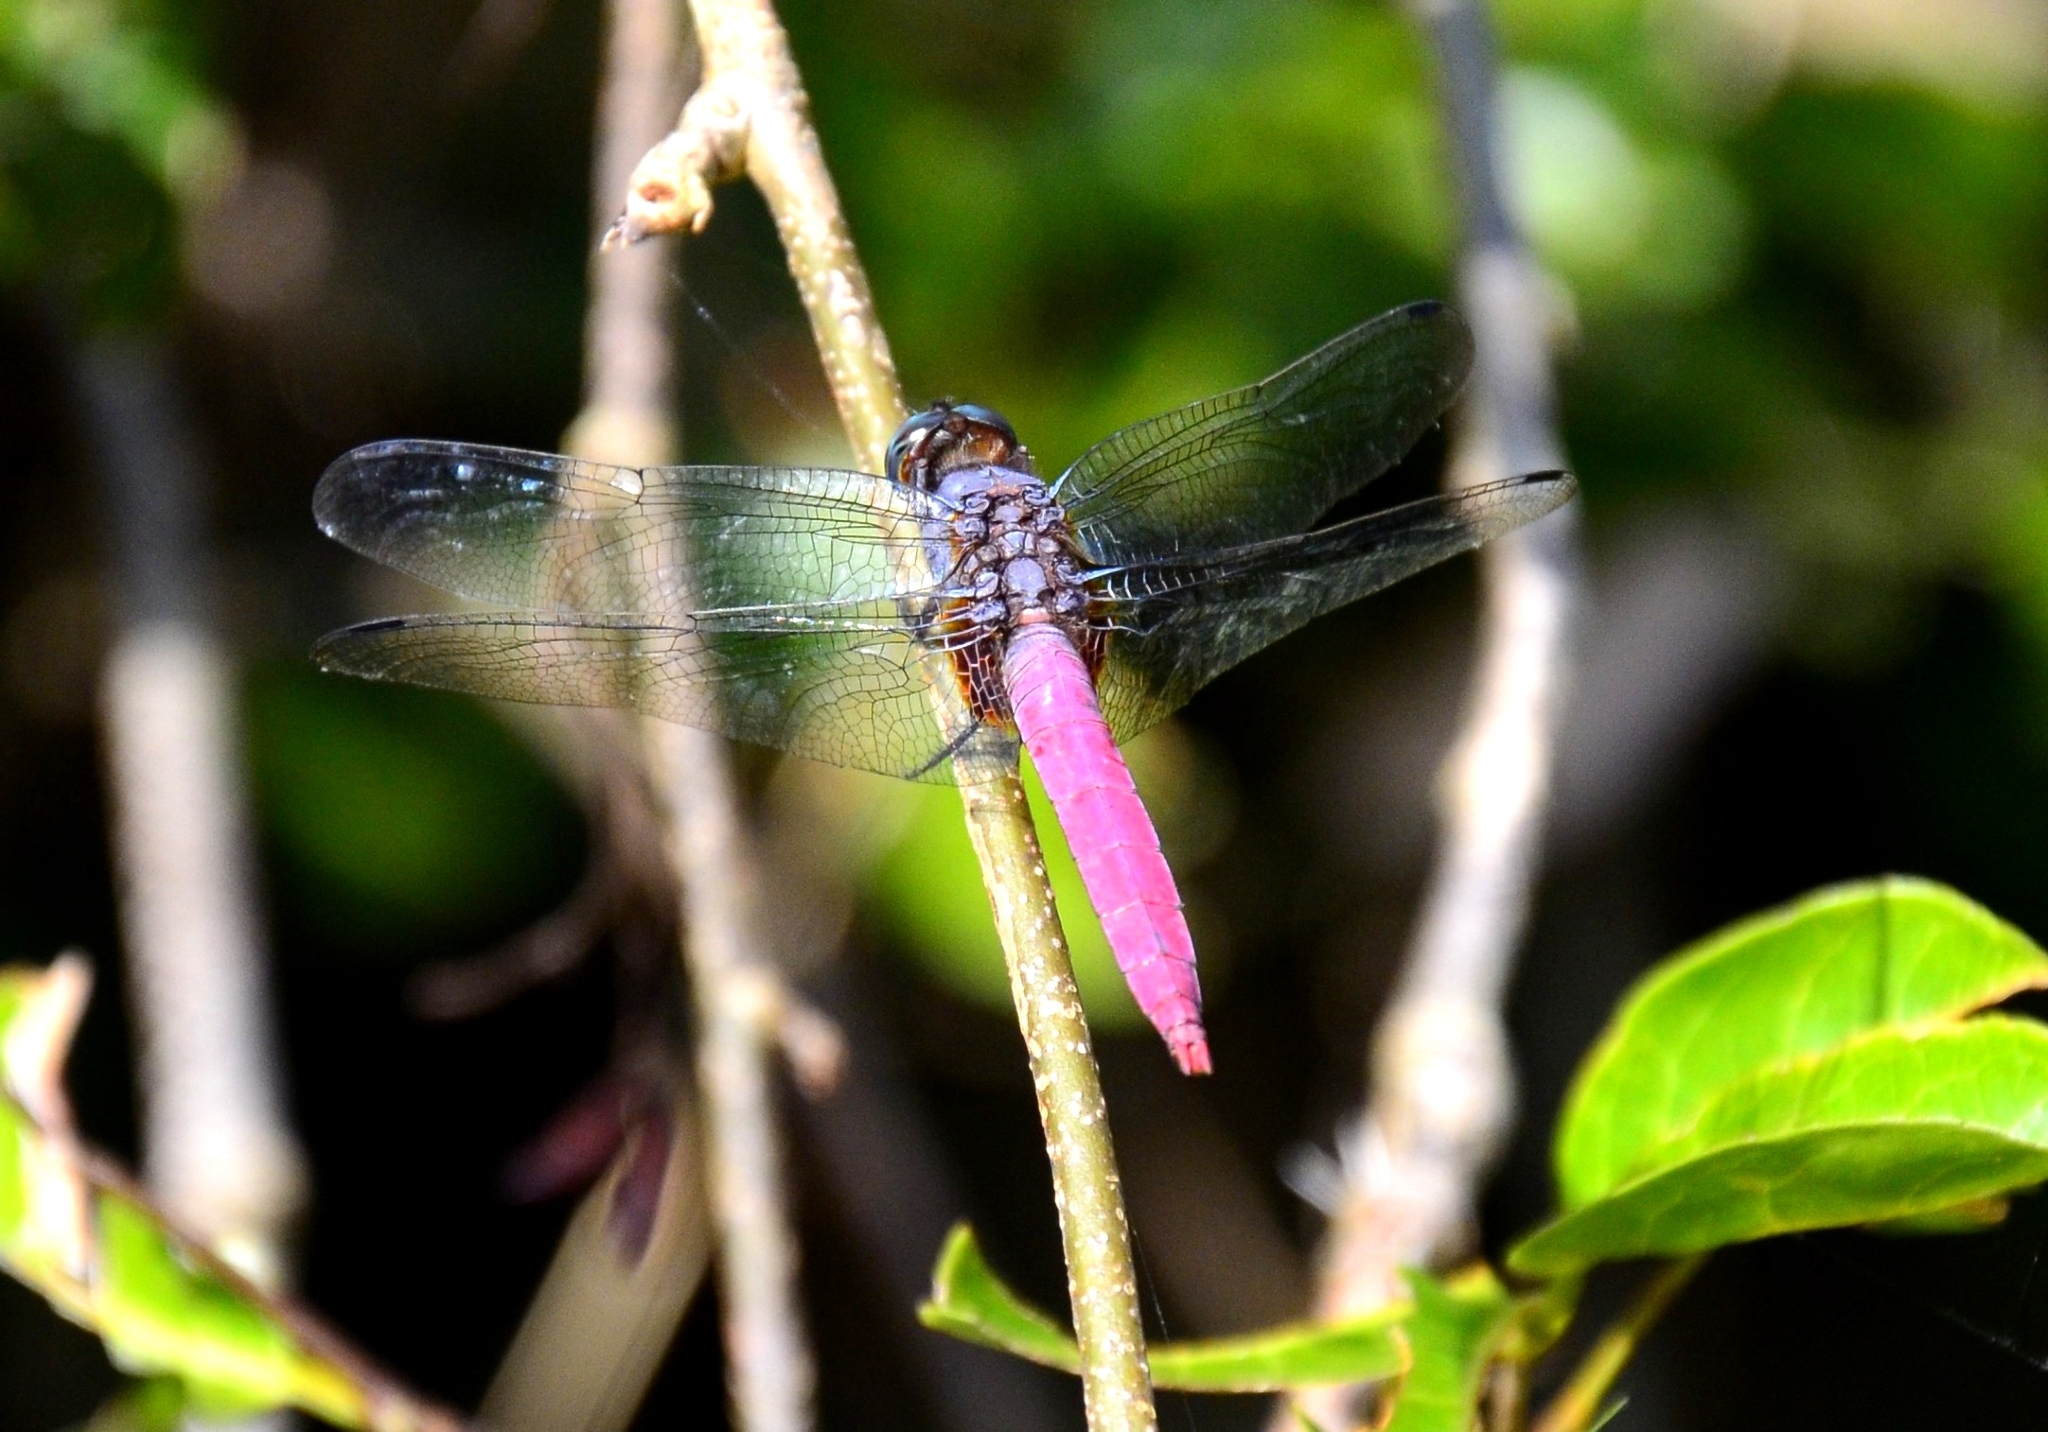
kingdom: Animalia
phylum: Arthropoda
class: Insecta
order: Odonata
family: Libellulidae
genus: Orthetrum
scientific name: Orthetrum pruinosum
